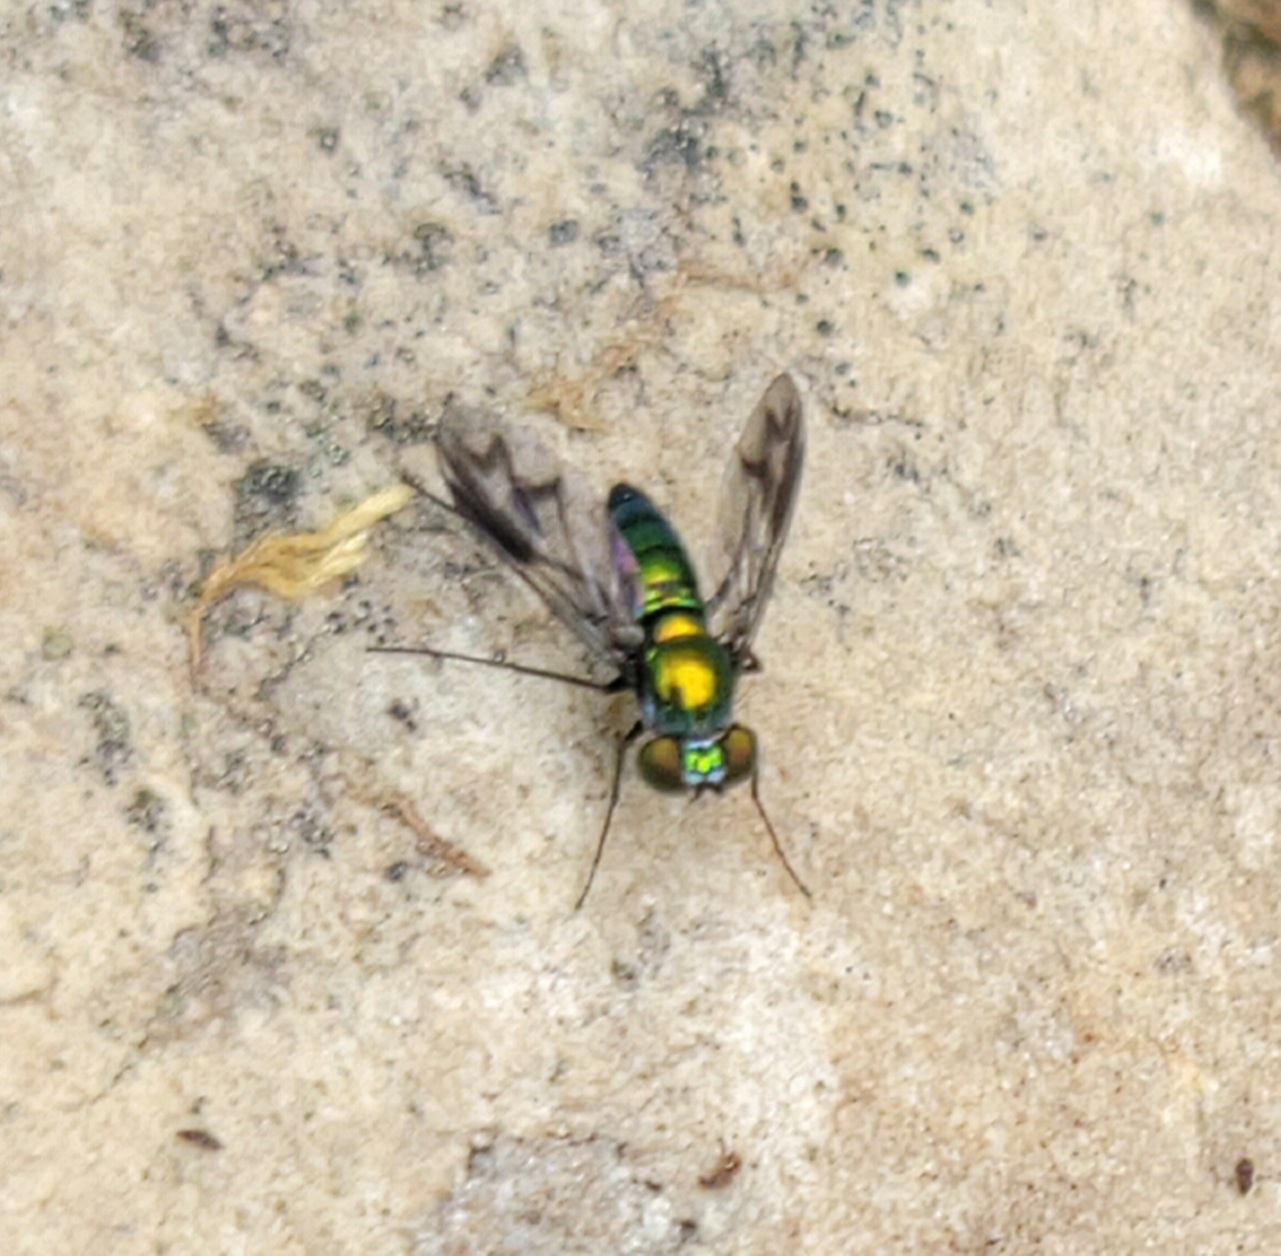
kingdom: Animalia
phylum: Arthropoda
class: Insecta
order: Diptera
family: Dolichopodidae
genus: Condylostylus
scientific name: Condylostylus patibulatus
